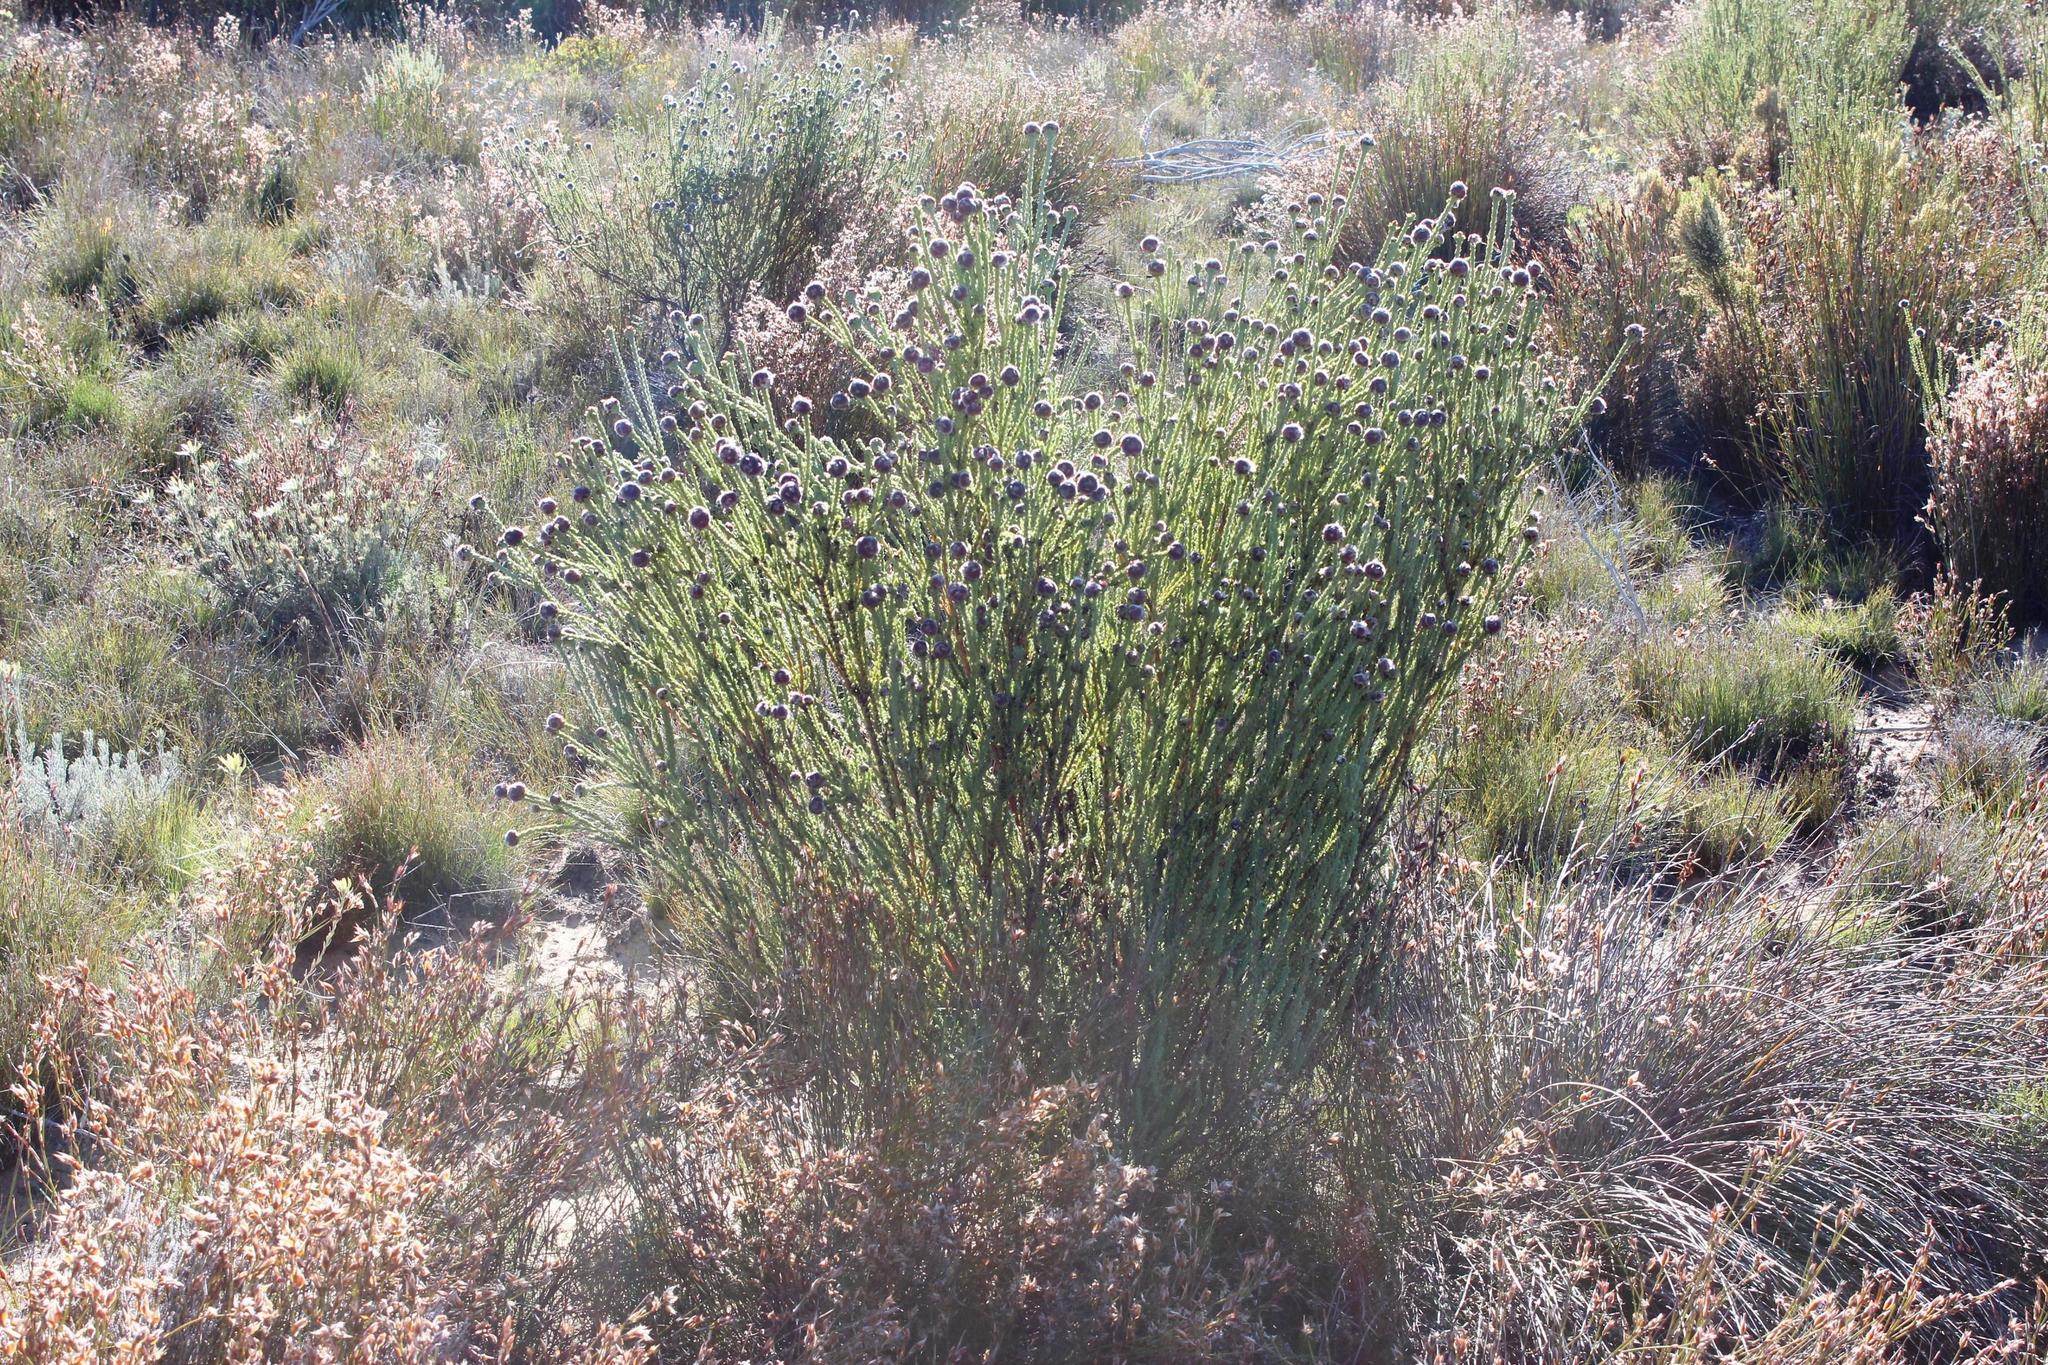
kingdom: Plantae
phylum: Tracheophyta
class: Magnoliopsida
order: Proteales
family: Proteaceae
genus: Leucadendron
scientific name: Leucadendron dubium
